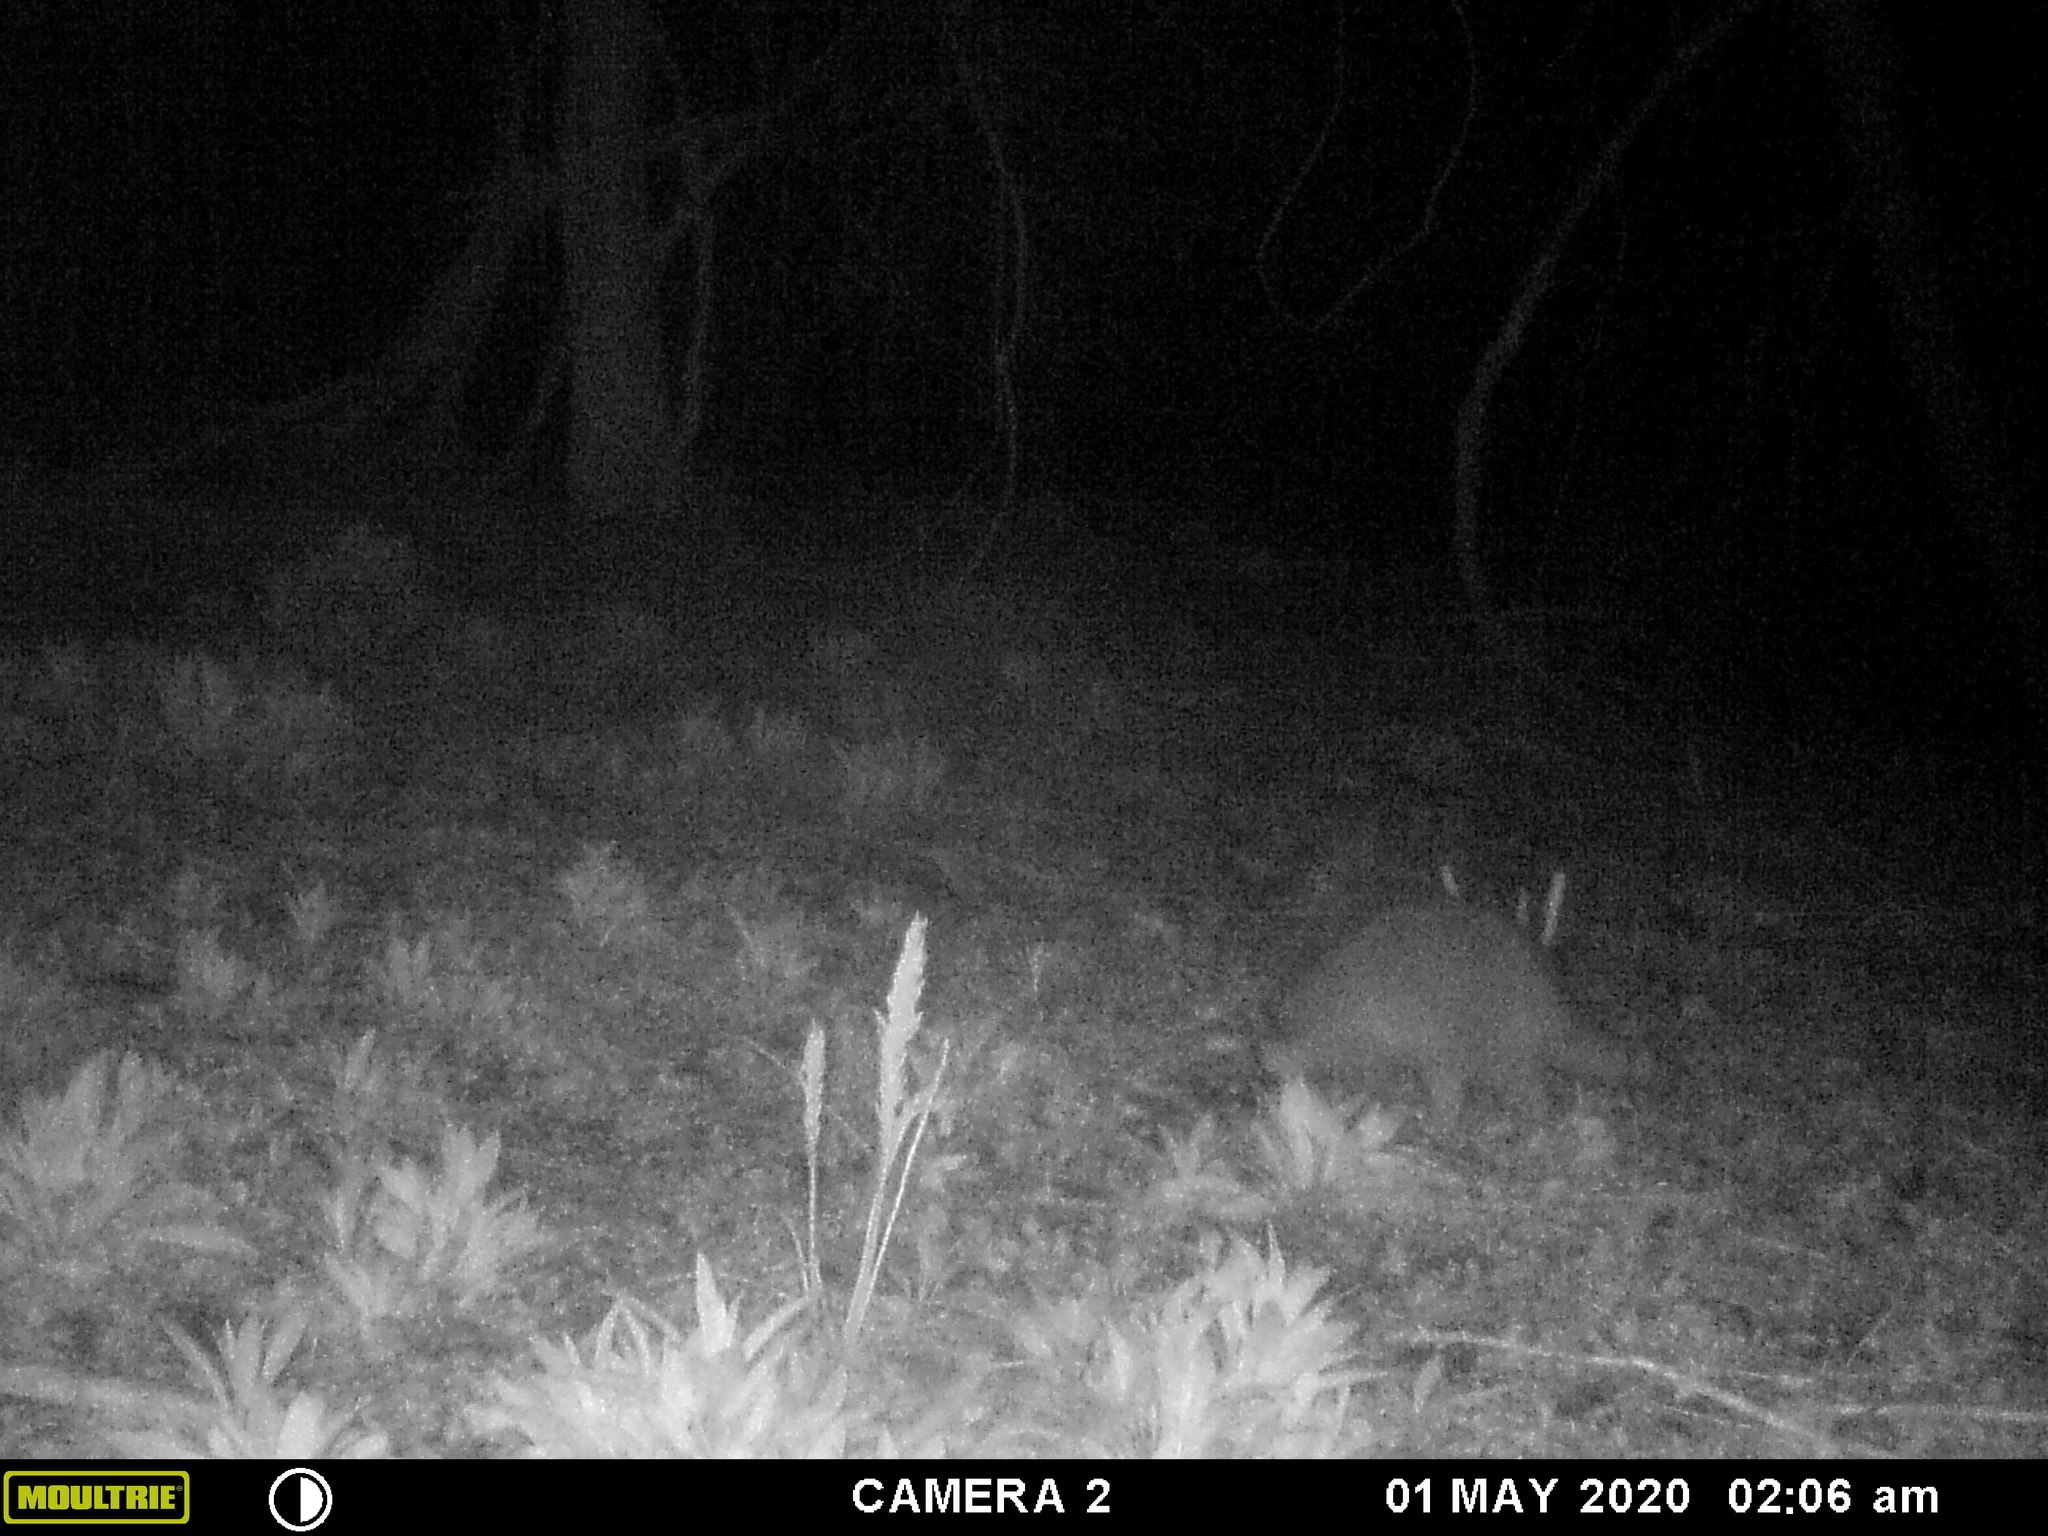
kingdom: Animalia
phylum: Chordata
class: Mammalia
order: Carnivora
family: Procyonidae
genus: Procyon
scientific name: Procyon lotor
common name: Raccoon
